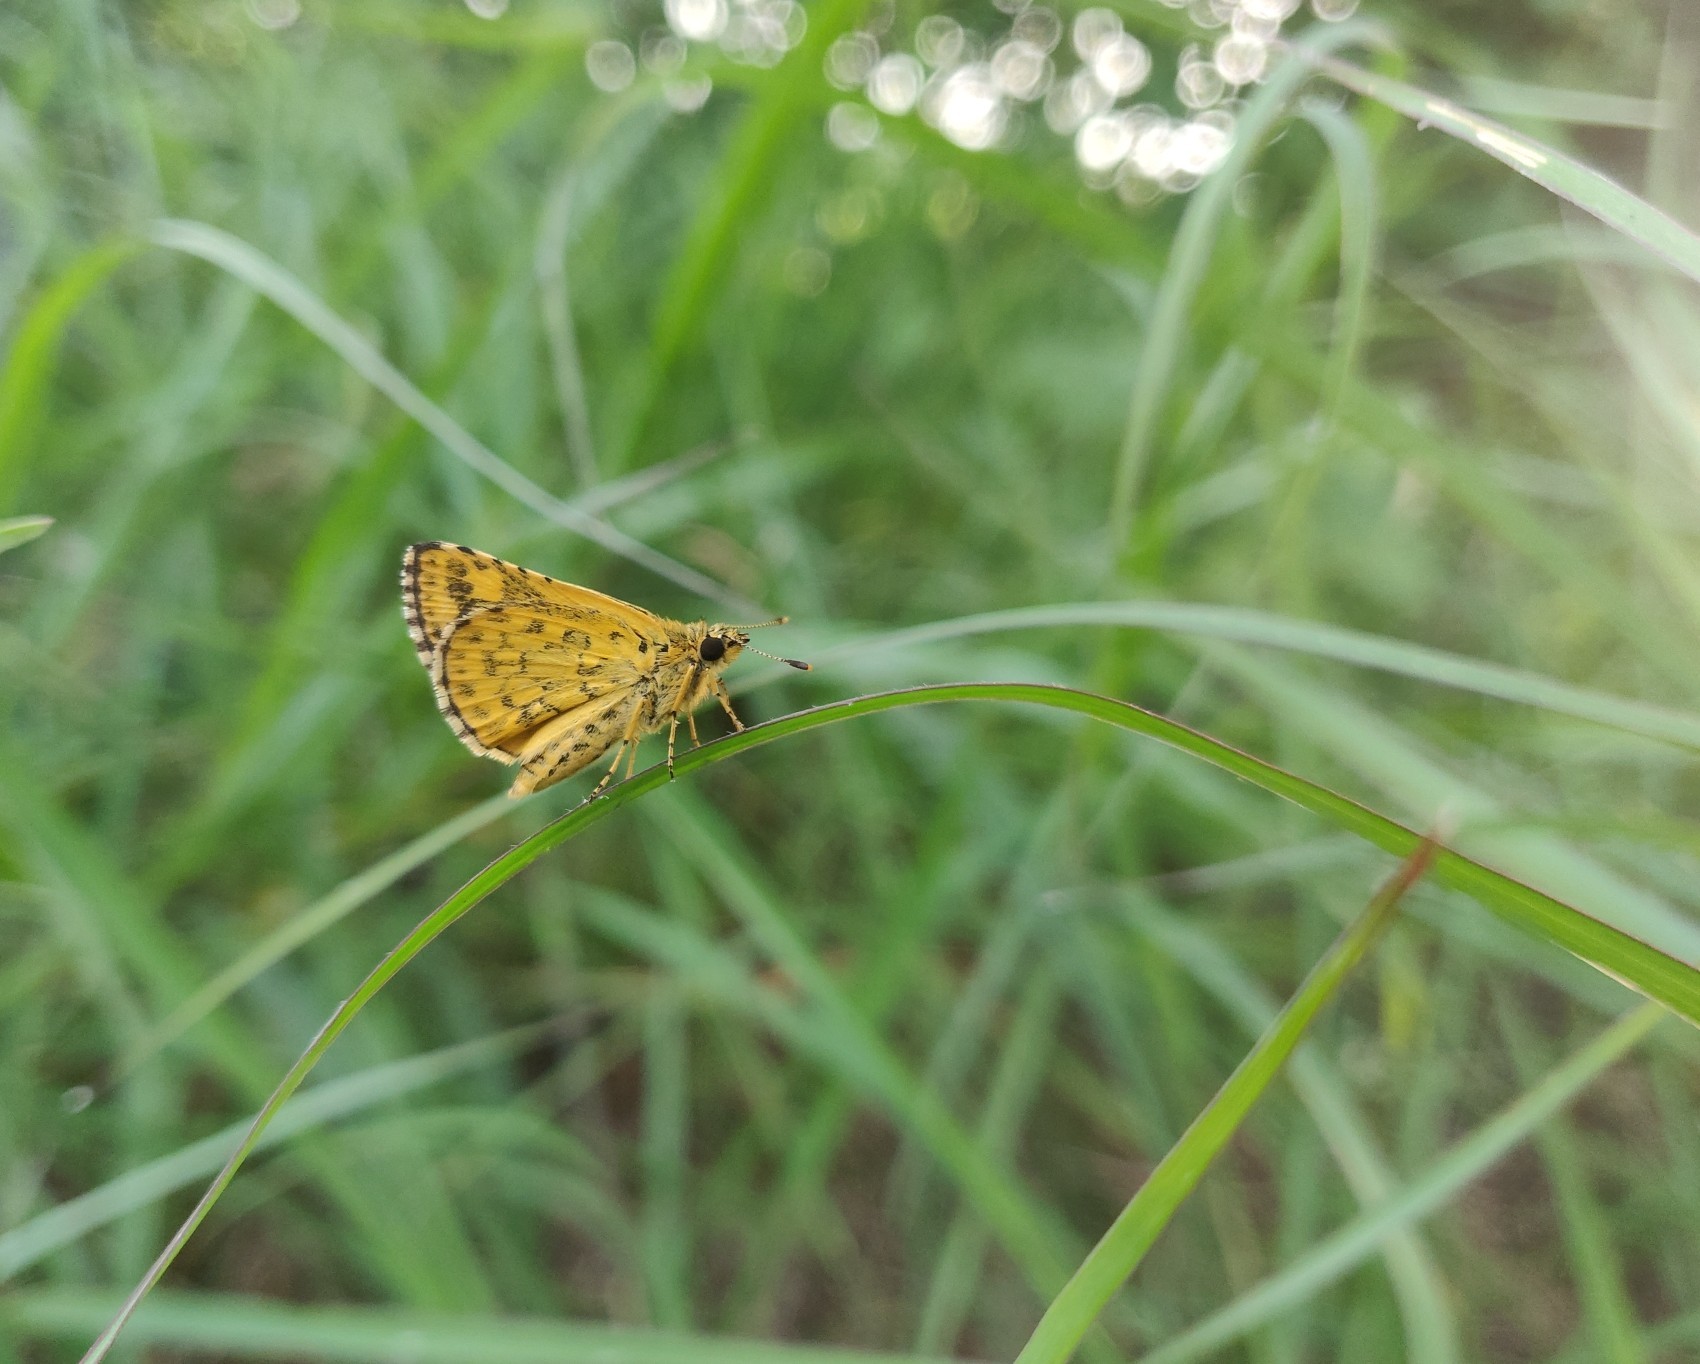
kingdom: Animalia
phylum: Arthropoda
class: Insecta
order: Lepidoptera
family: Hesperiidae
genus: Ampittia
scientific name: Ampittia dioscorides
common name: Common bush hopper
